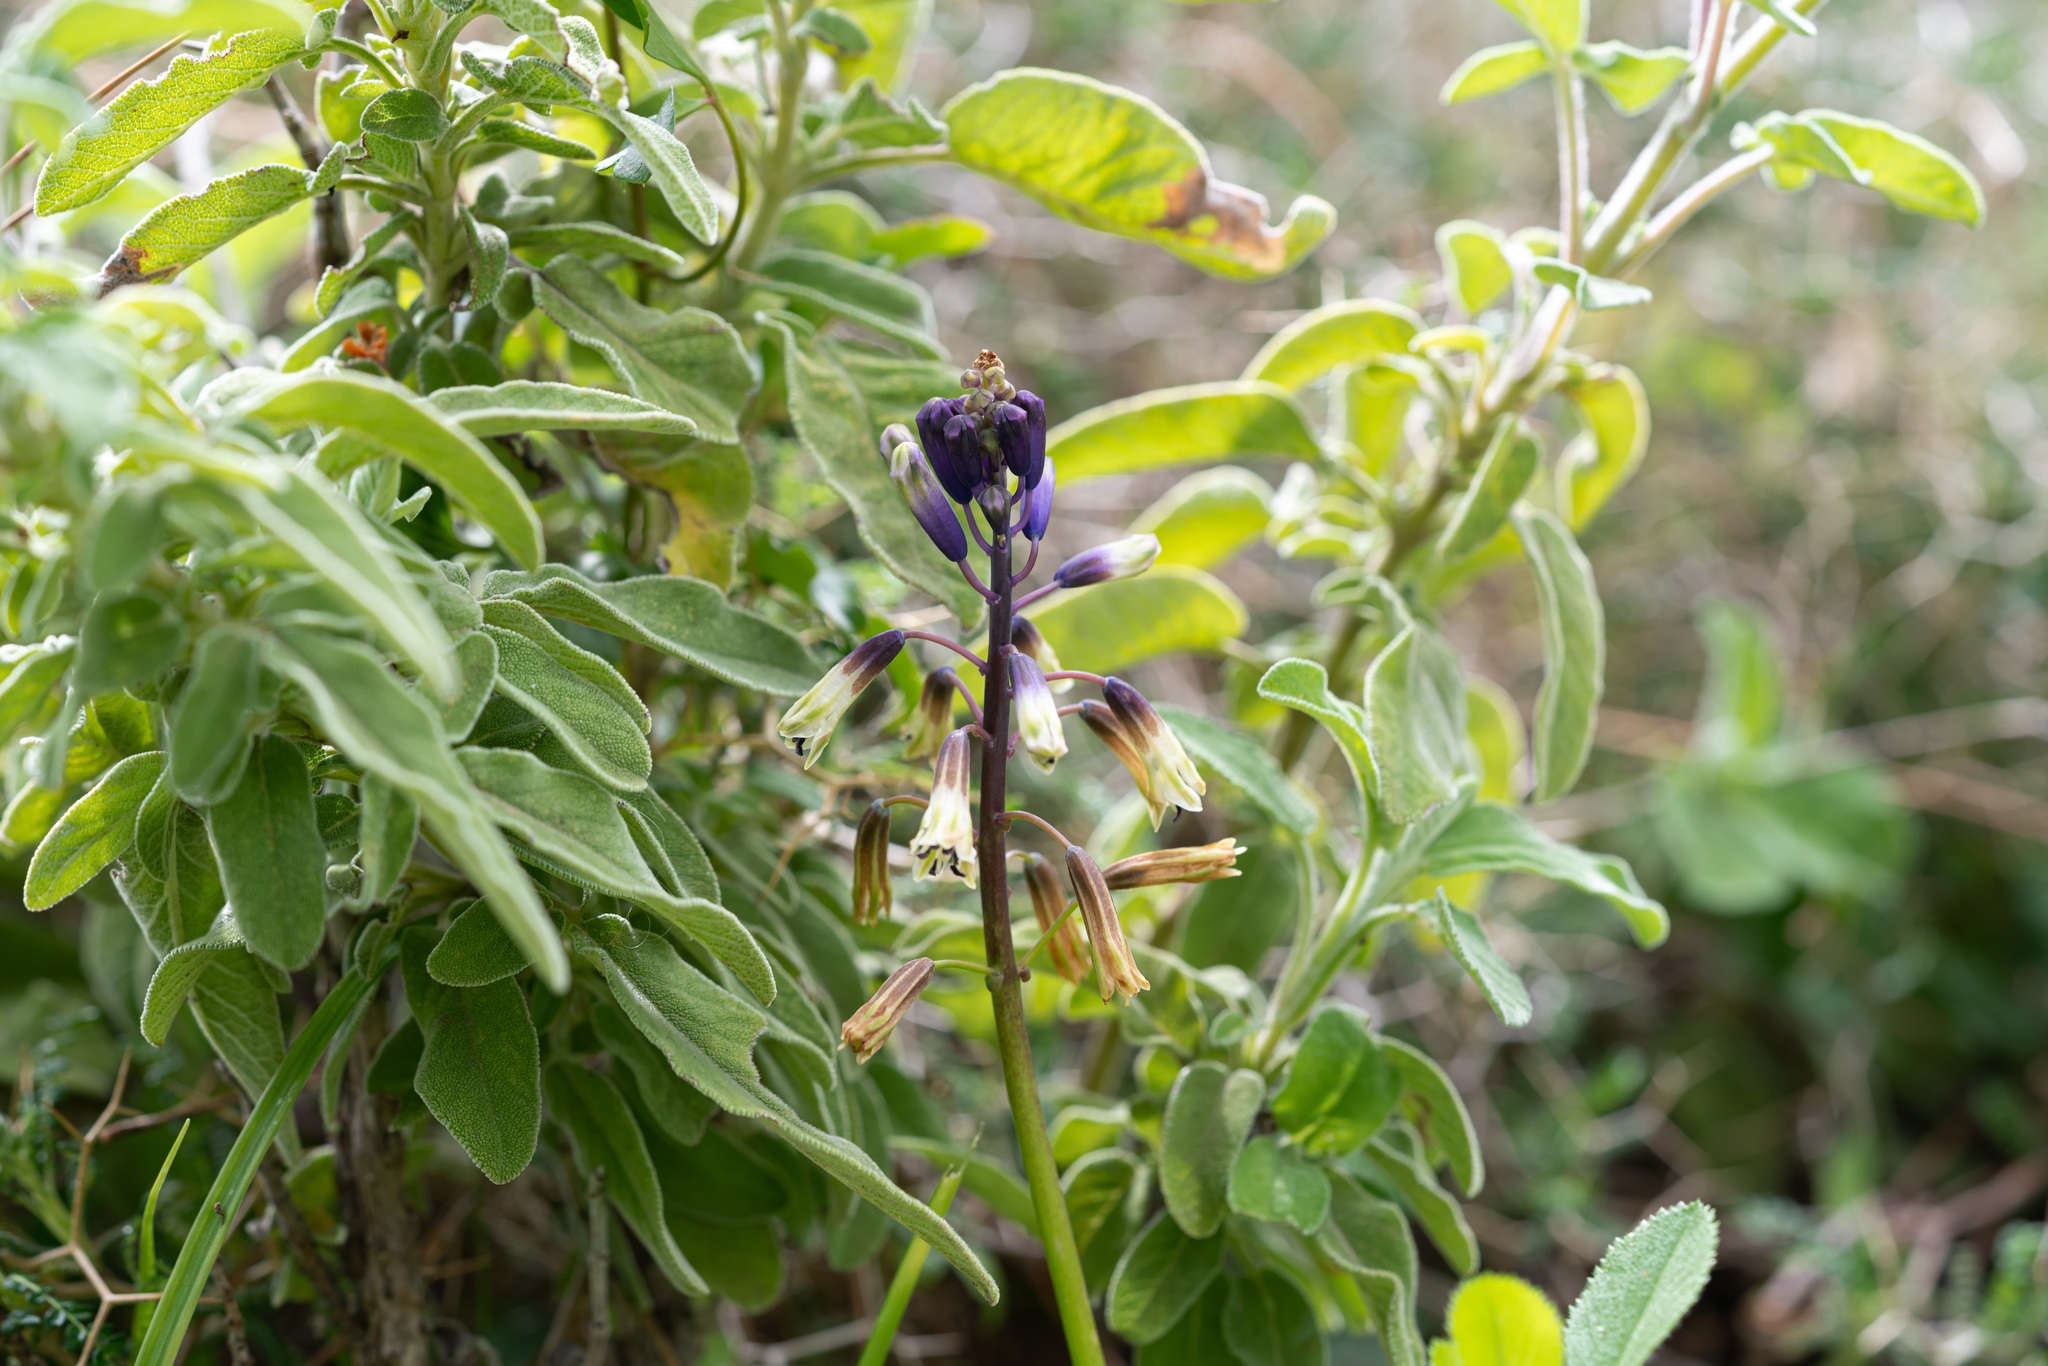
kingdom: Plantae
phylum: Tracheophyta
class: Liliopsida
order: Asparagales
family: Asparagaceae
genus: Bellevalia
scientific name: Bellevalia trifoliata
